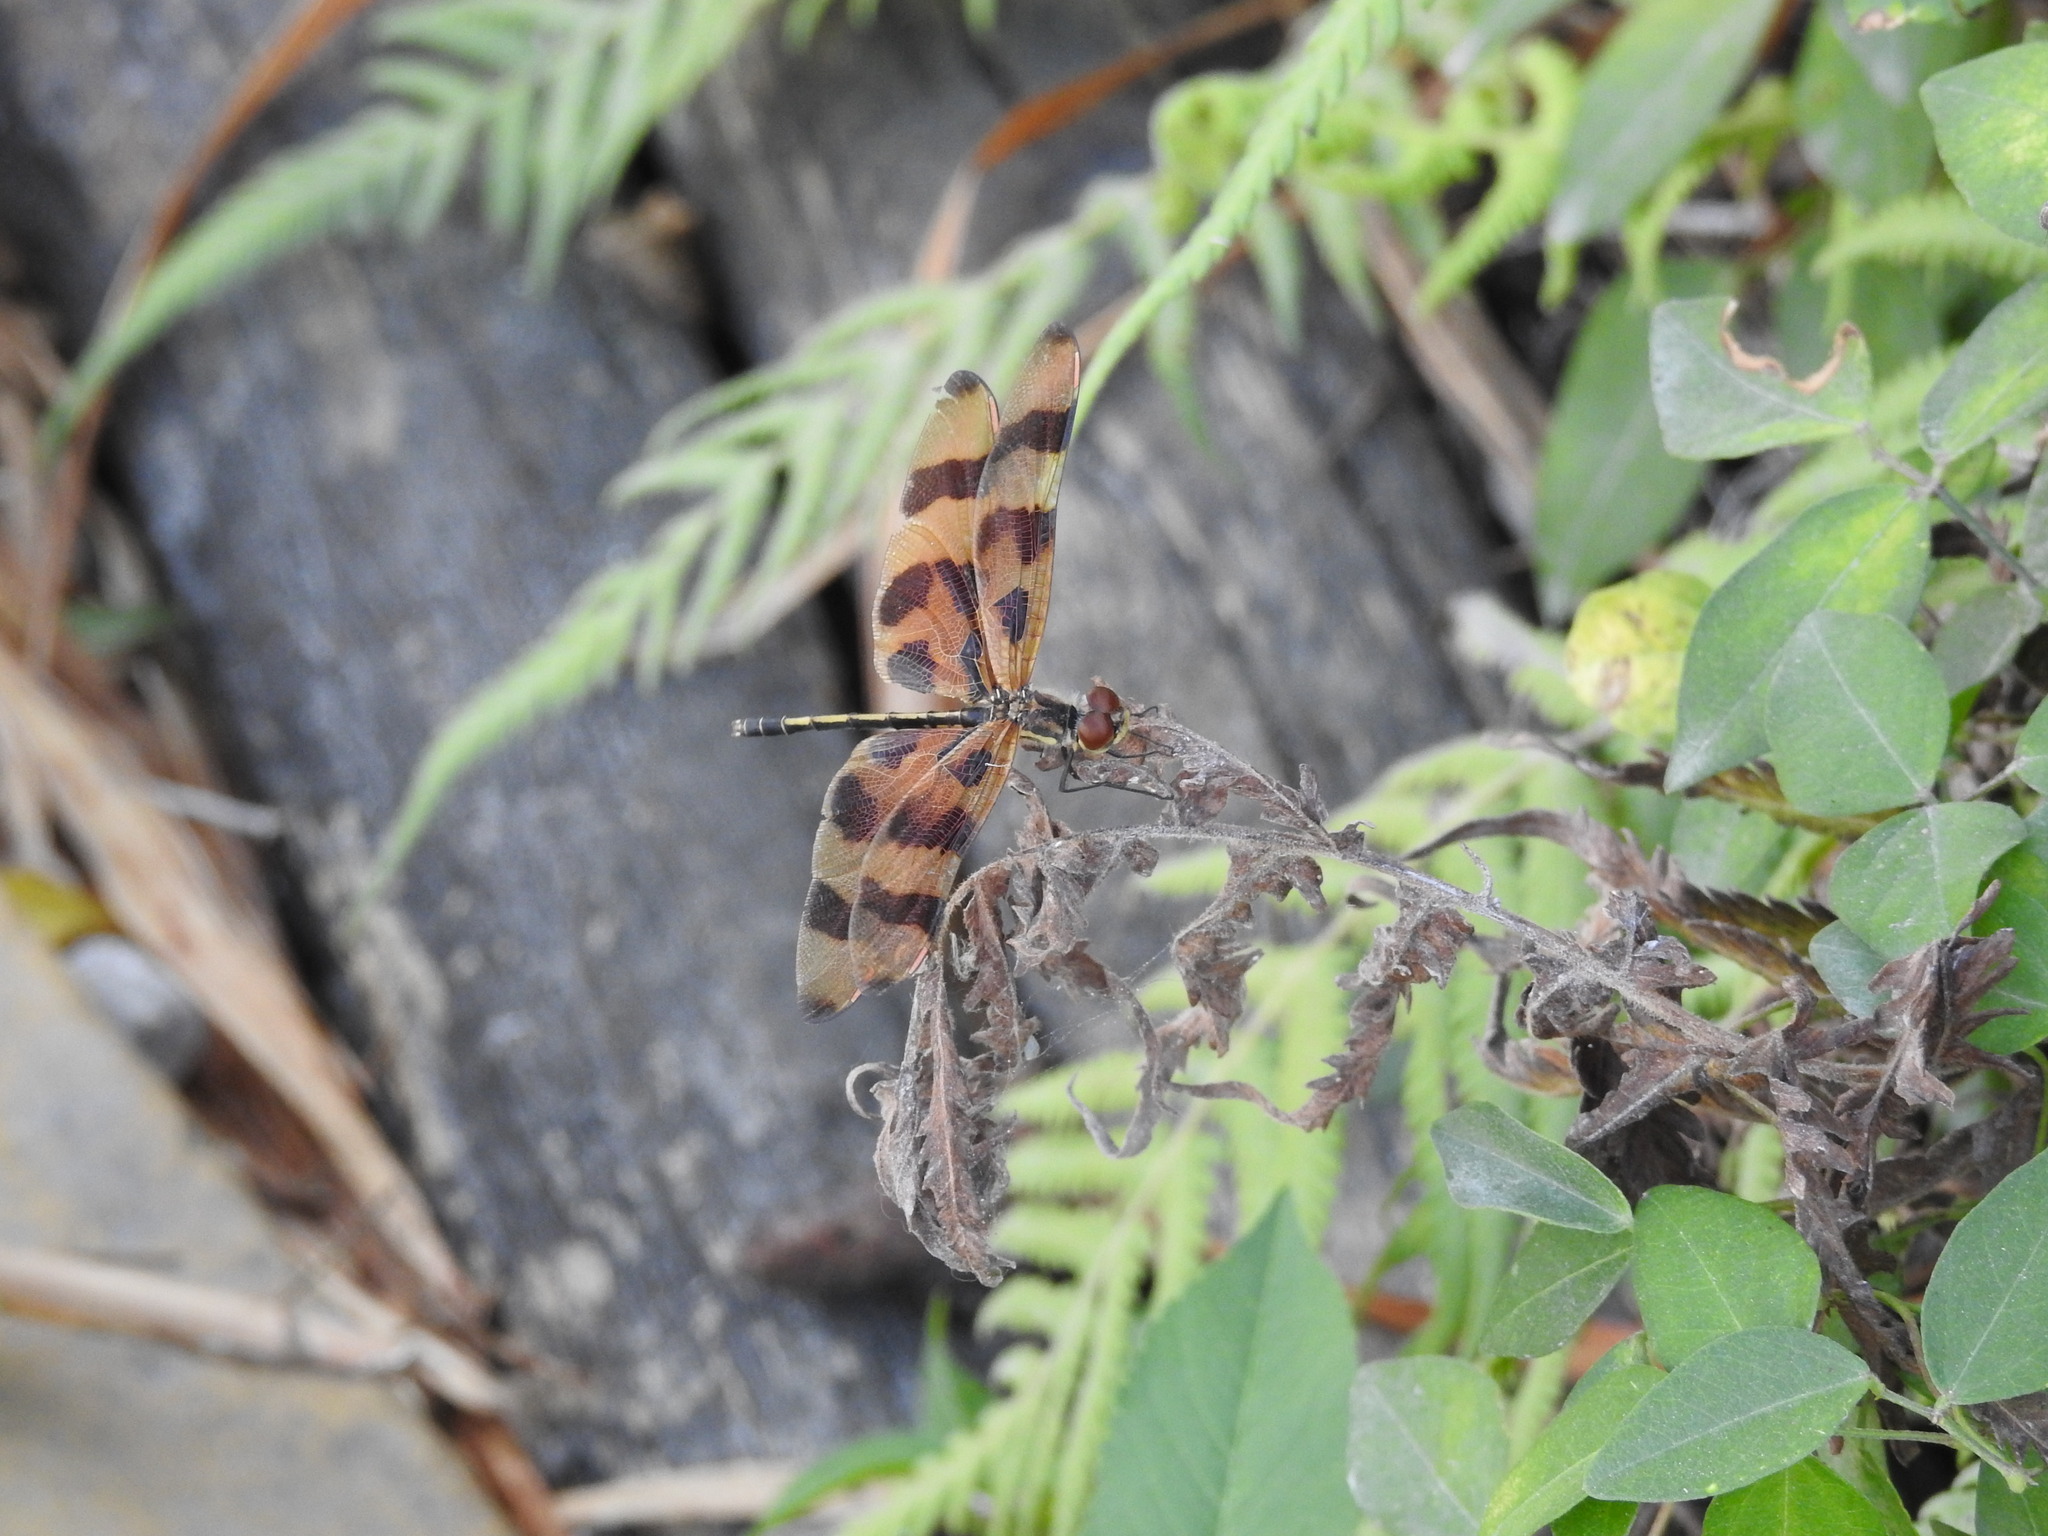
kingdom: Animalia
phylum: Arthropoda
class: Insecta
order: Odonata
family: Libellulidae
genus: Celithemis
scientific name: Celithemis eponina
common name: Halloween pennant
